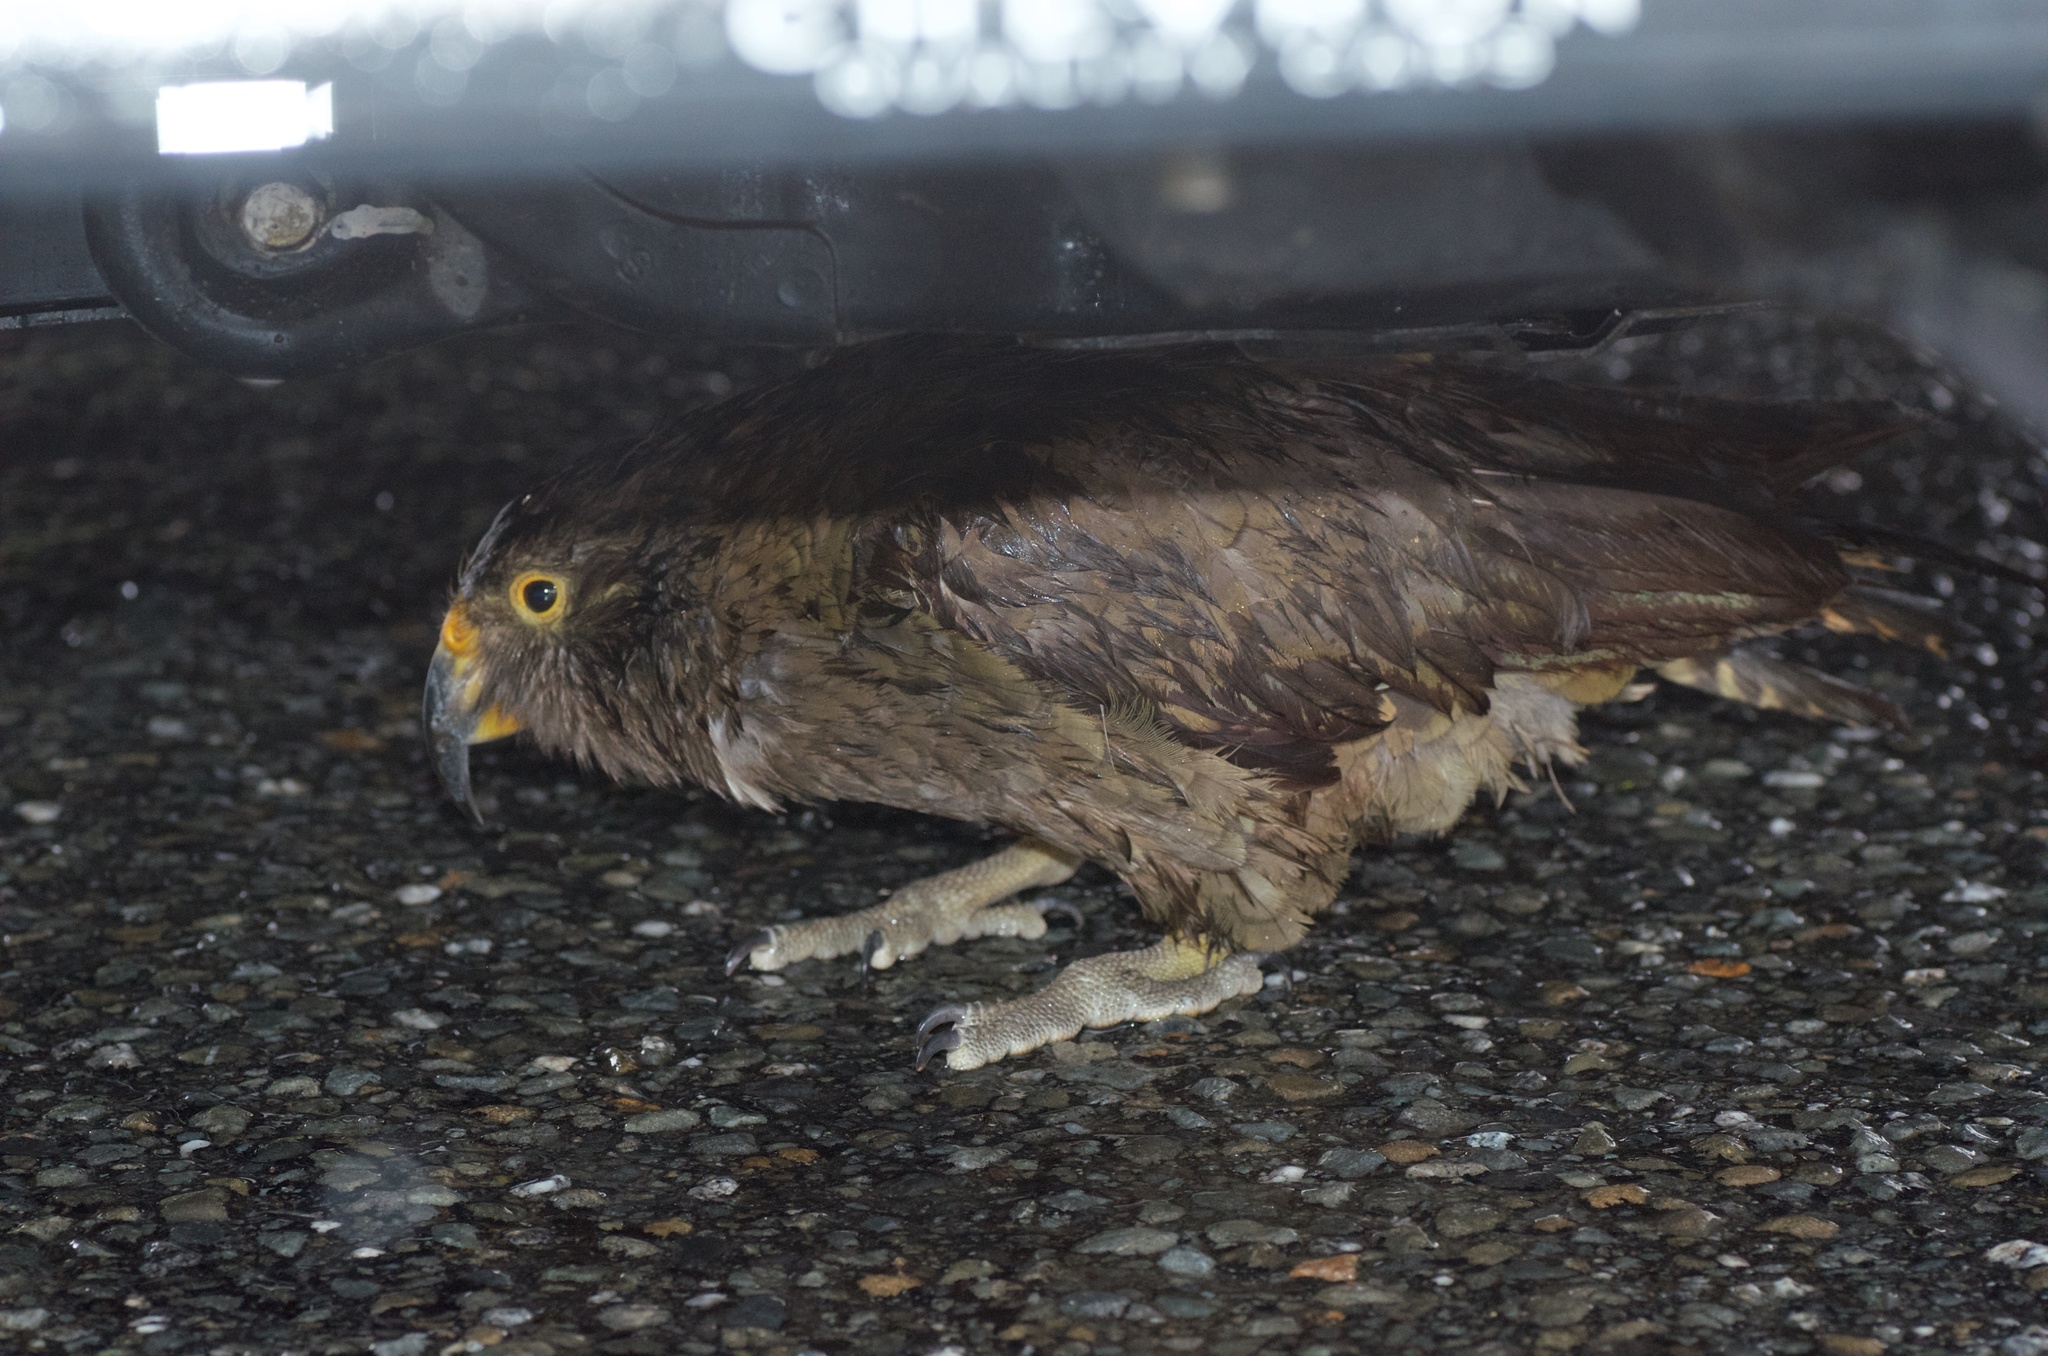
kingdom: Animalia
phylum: Chordata
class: Aves
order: Psittaciformes
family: Psittacidae
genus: Nestor
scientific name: Nestor notabilis
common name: Kea
